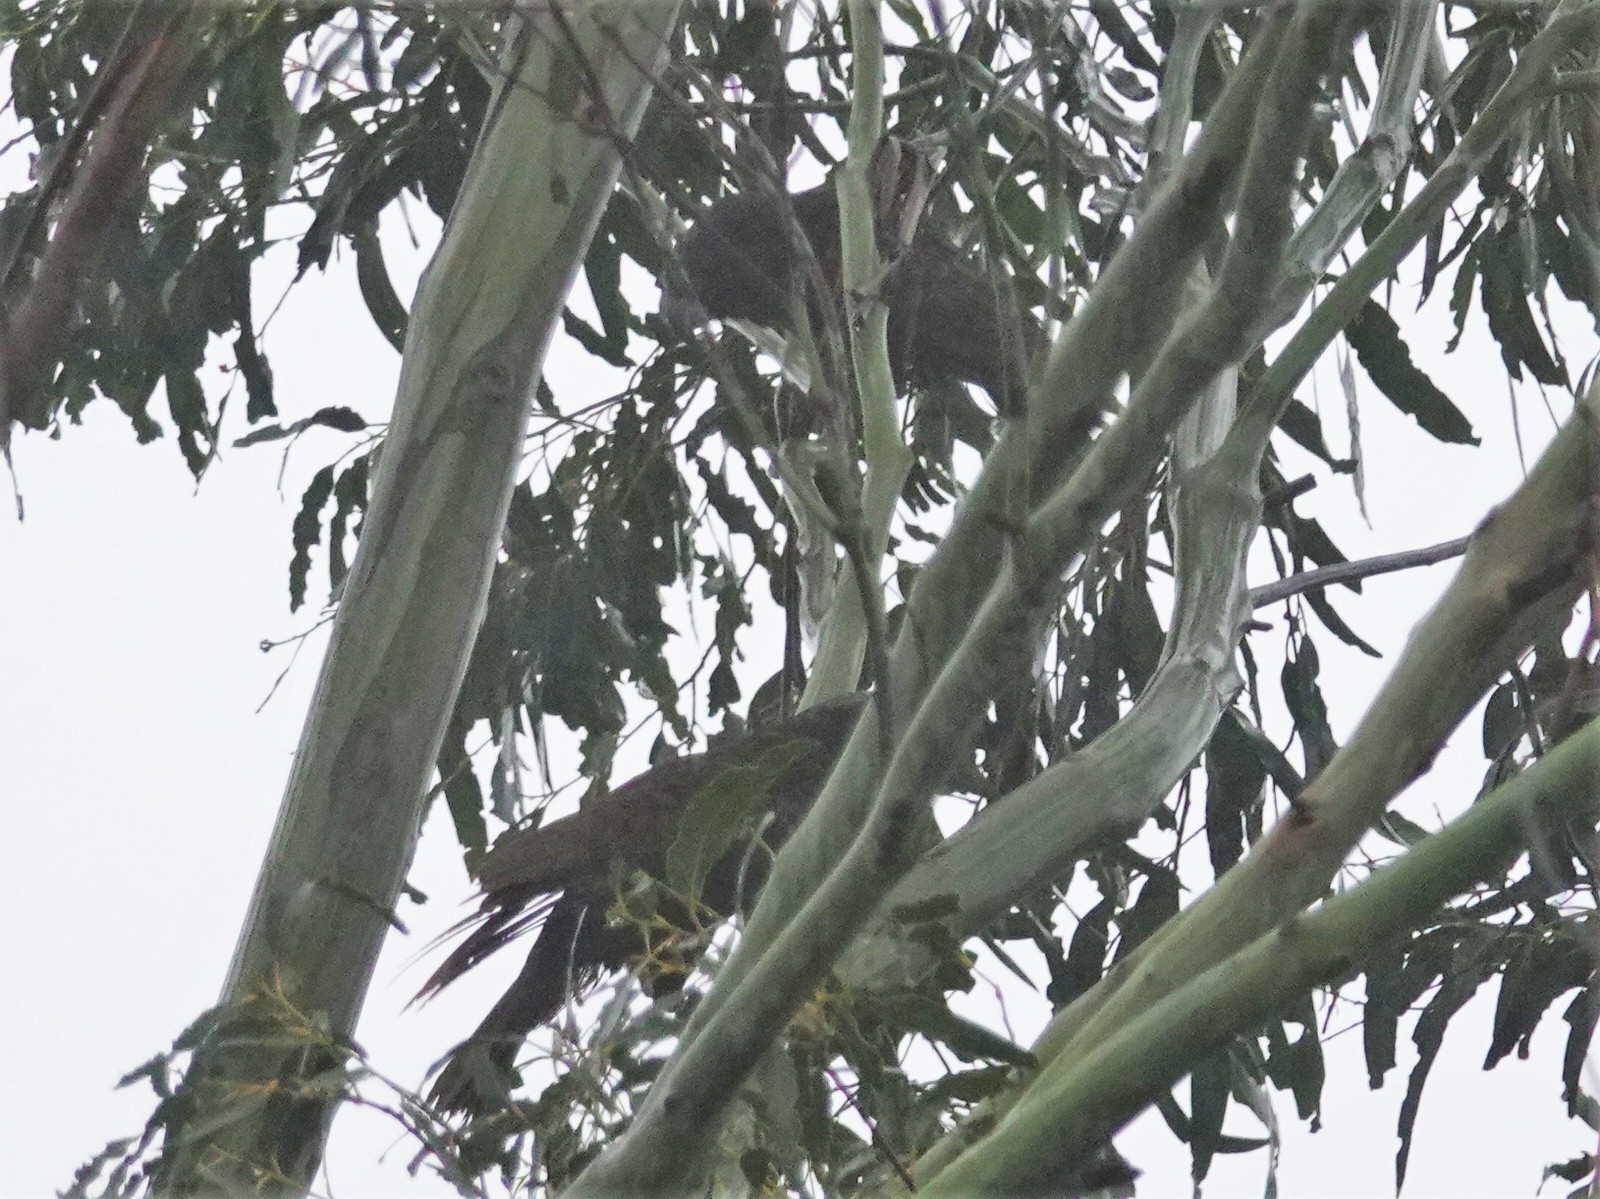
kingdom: Animalia
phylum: Chordata
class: Aves
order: Psittaciformes
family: Psittacidae
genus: Nestor
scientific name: Nestor meridionalis
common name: New zealand kaka
